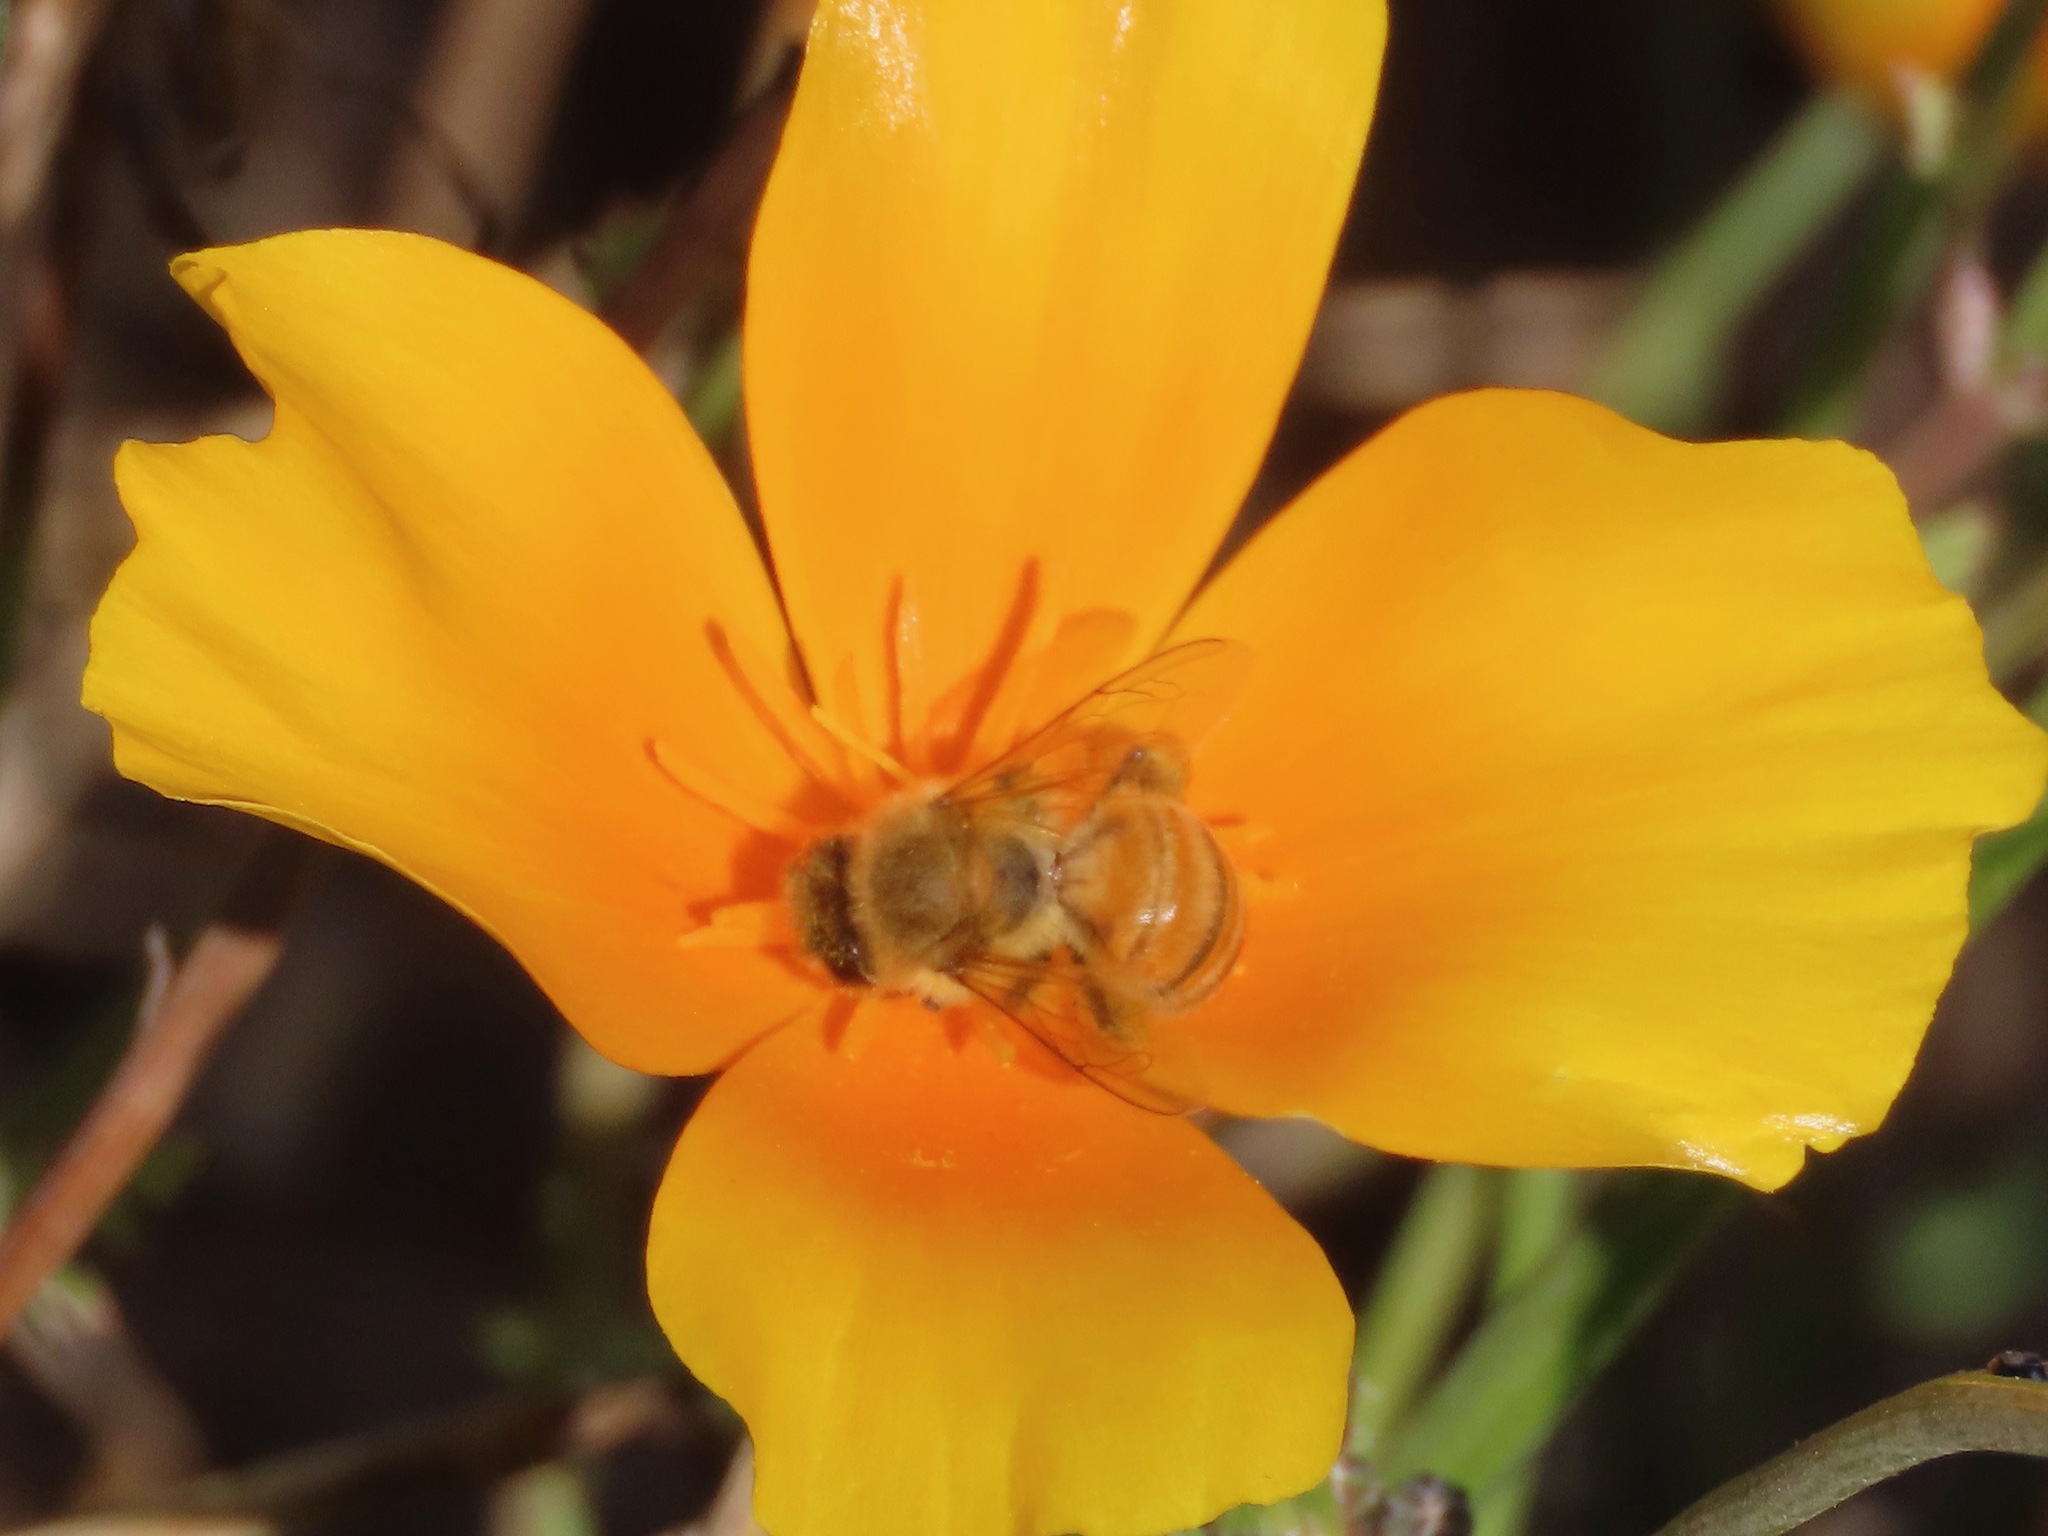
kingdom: Animalia
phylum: Arthropoda
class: Insecta
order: Hymenoptera
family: Apidae
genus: Apis
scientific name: Apis mellifera
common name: Honey bee
